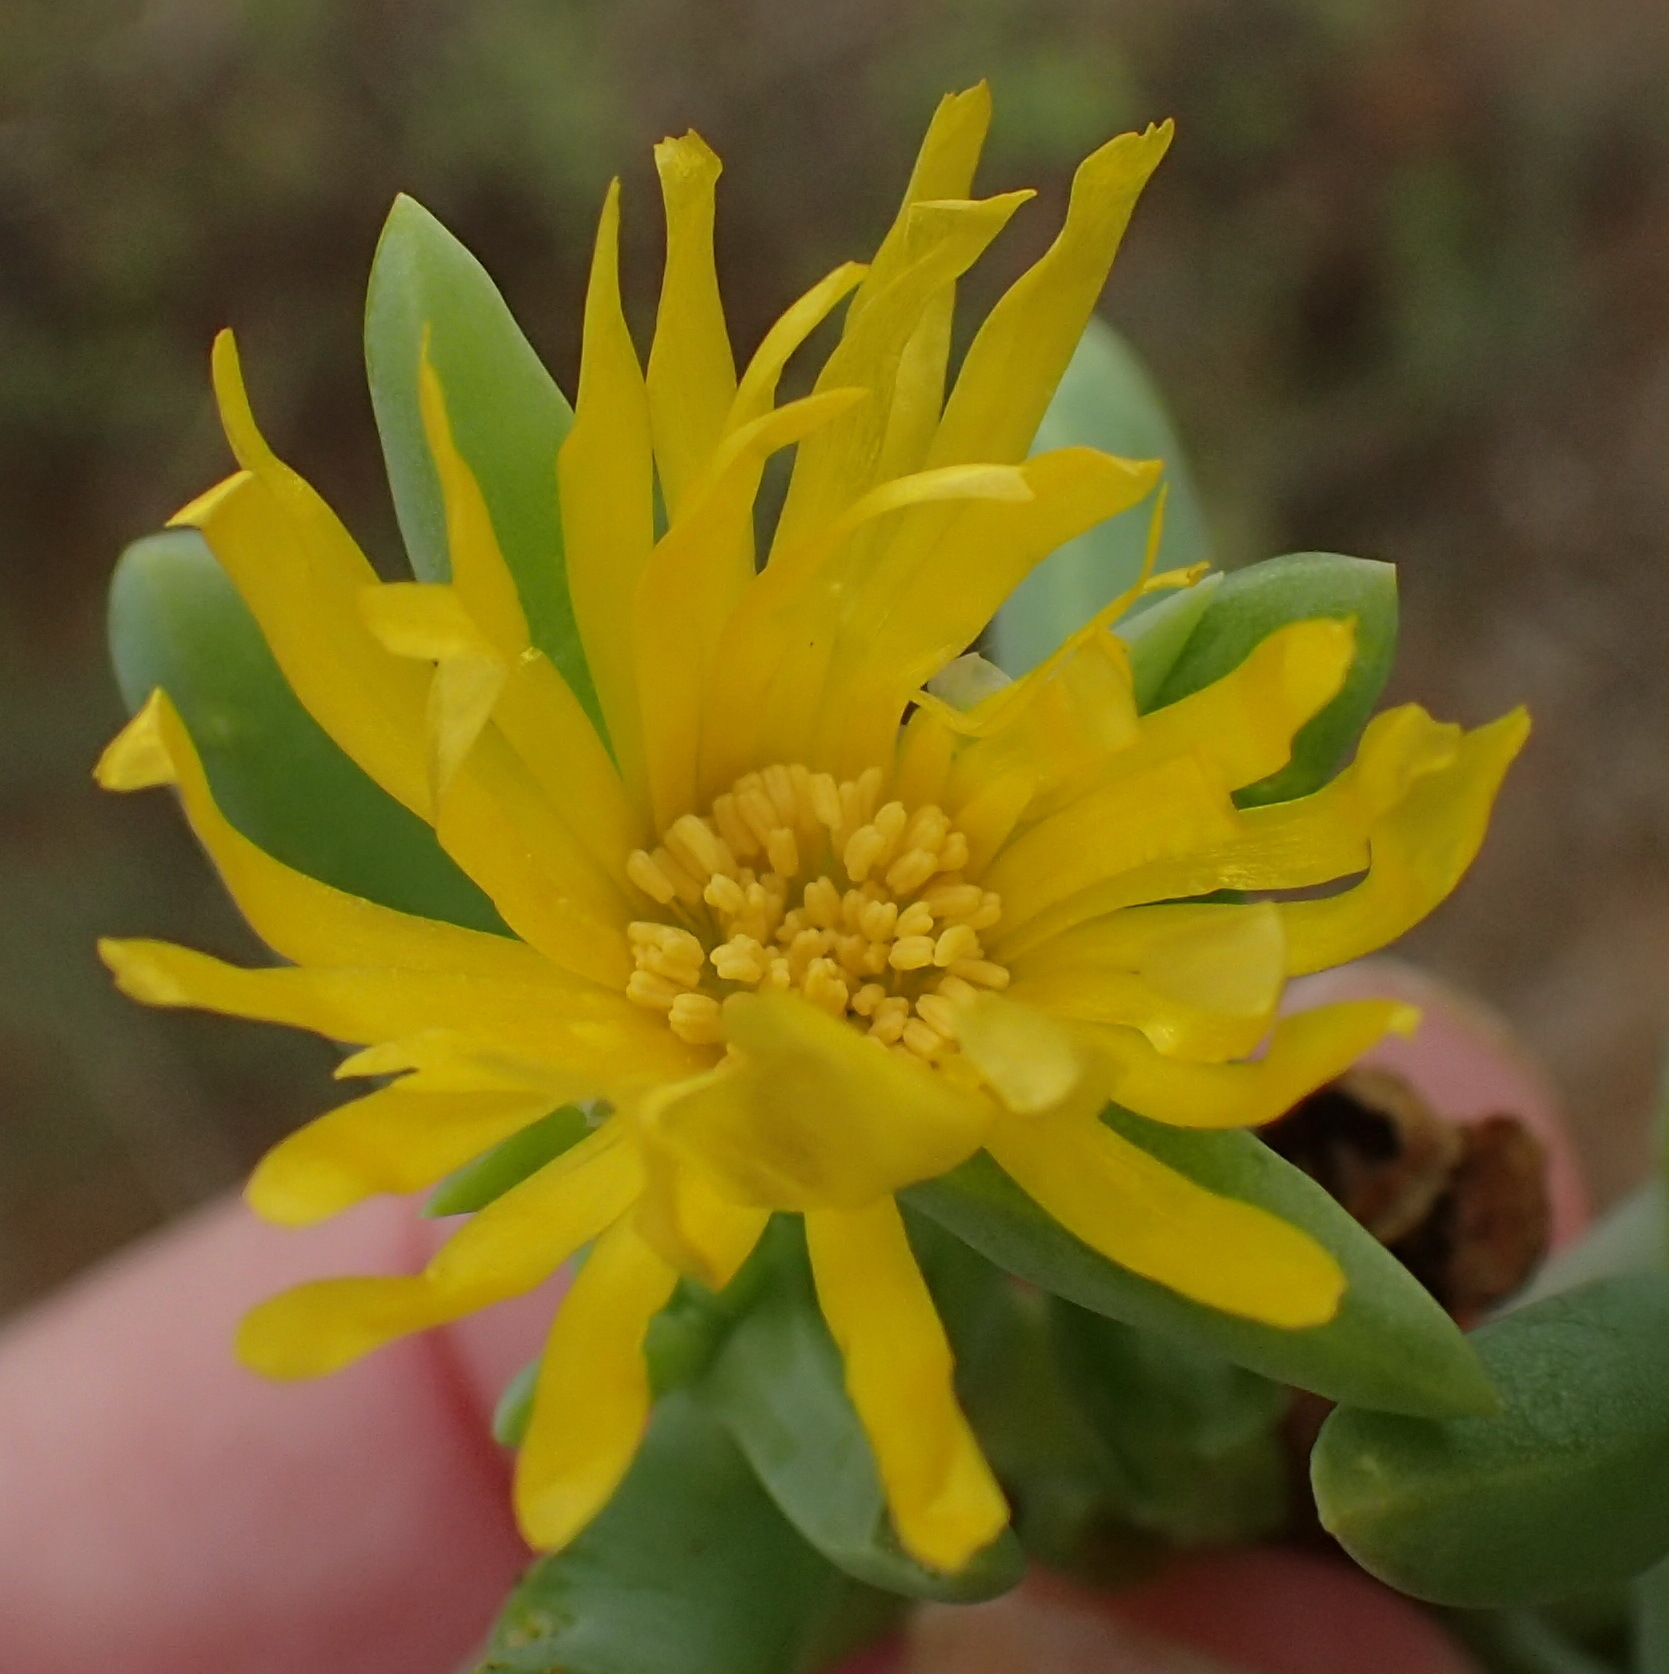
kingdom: Plantae
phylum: Tracheophyta
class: Magnoliopsida
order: Caryophyllales
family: Aizoaceae
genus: Malephora
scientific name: Malephora lutea
